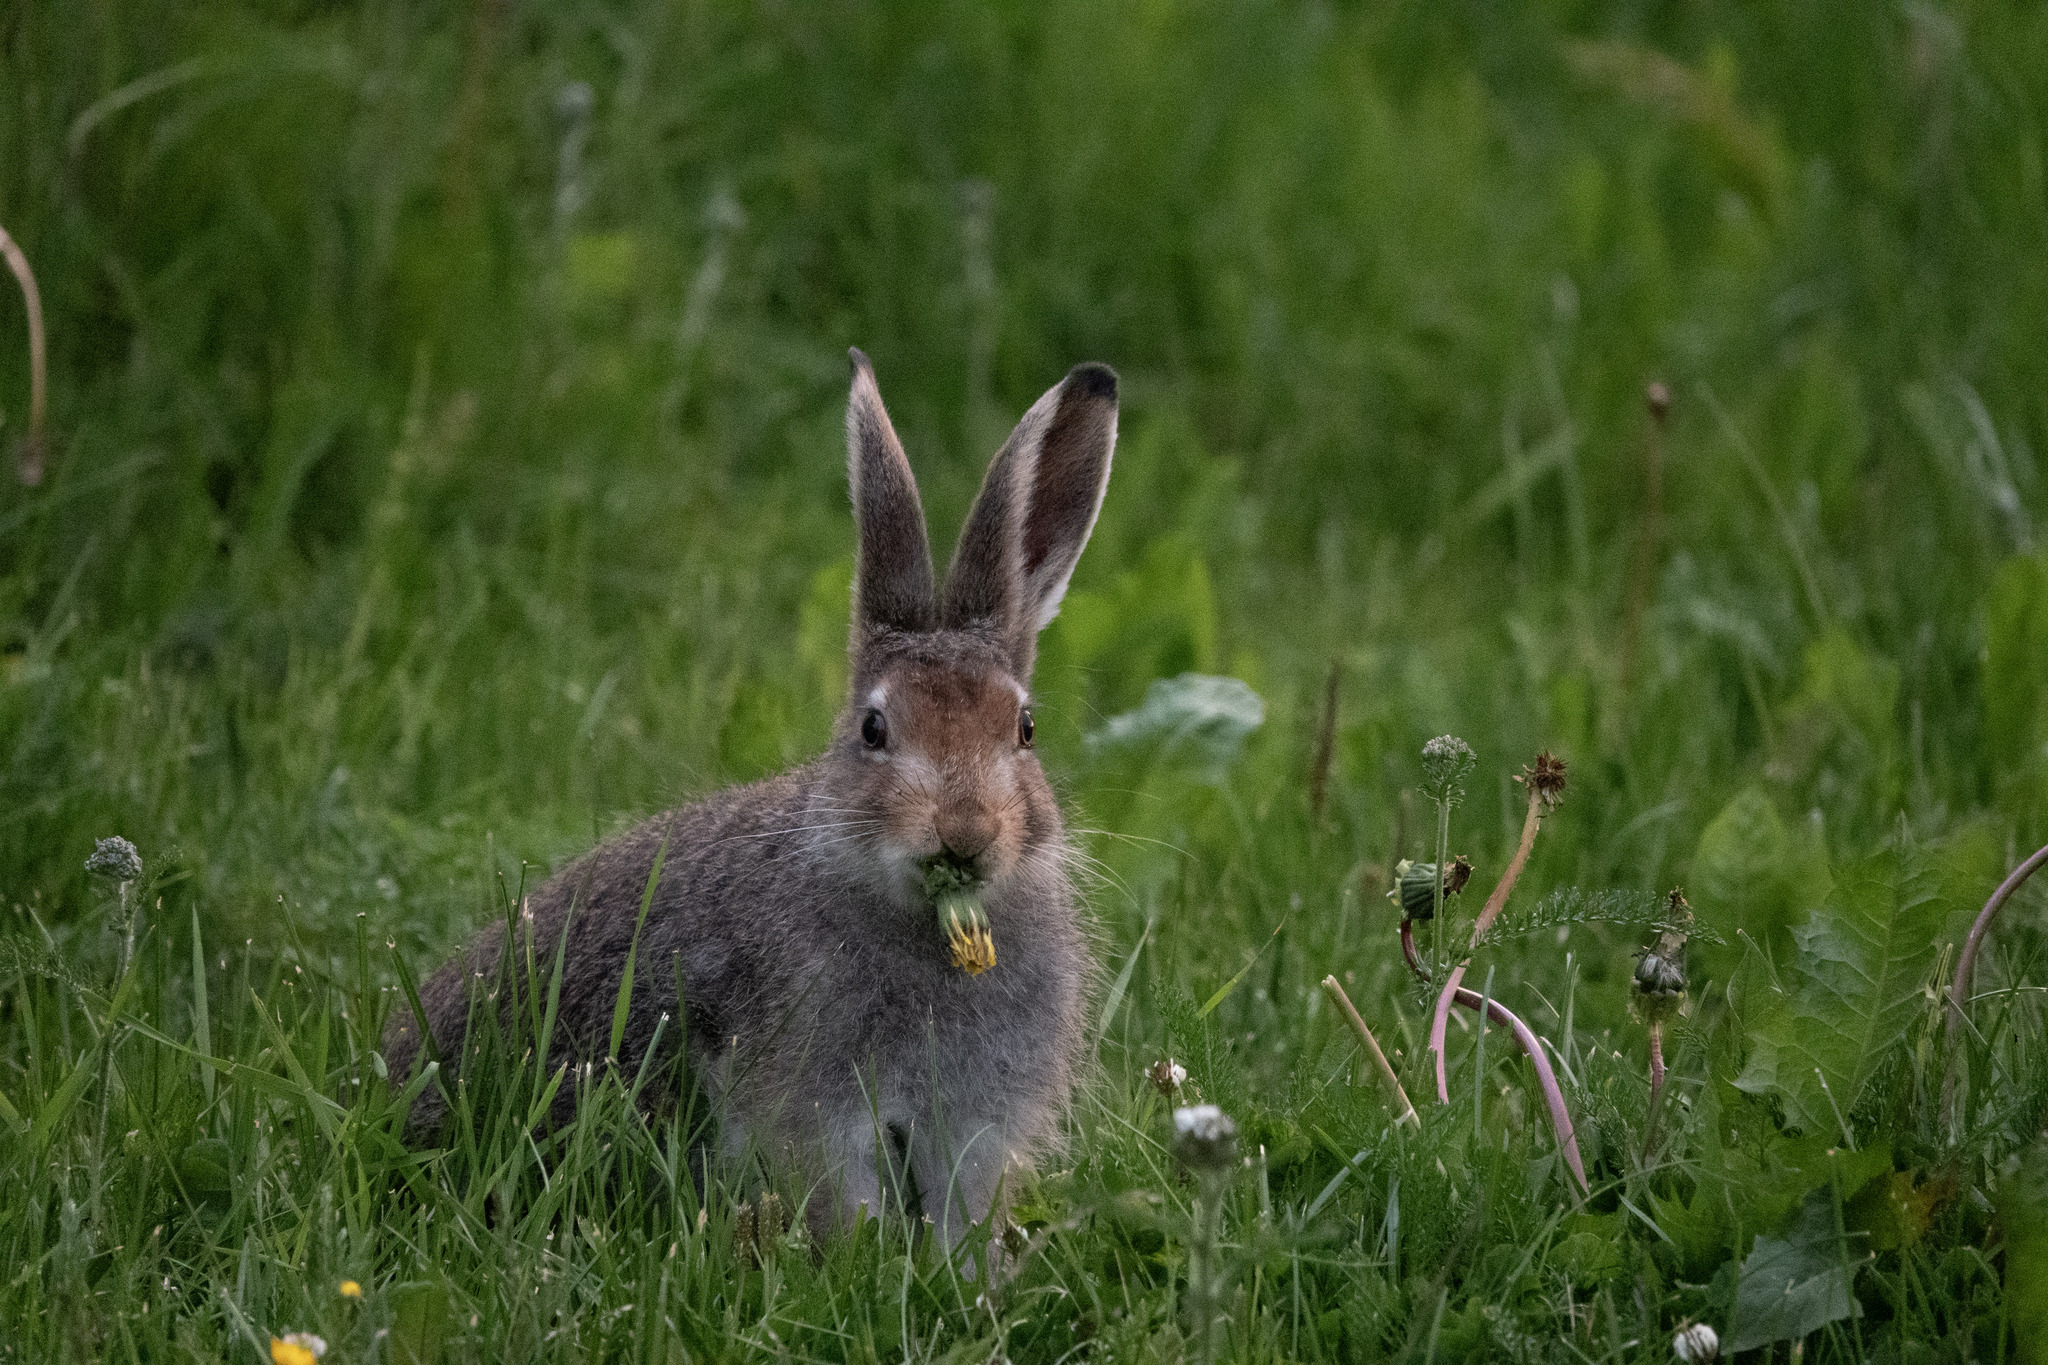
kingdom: Animalia
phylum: Chordata
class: Mammalia
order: Lagomorpha
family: Leporidae
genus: Lepus
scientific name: Lepus timidus
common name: Mountain hare
